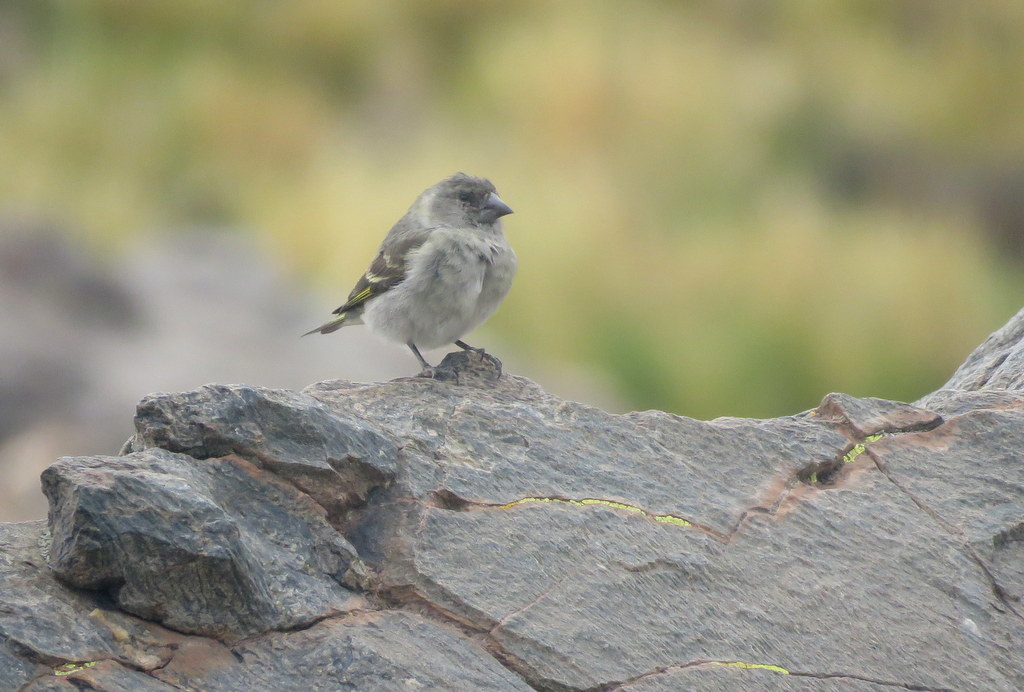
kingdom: Animalia
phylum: Chordata
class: Aves
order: Passeriformes
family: Fringillidae
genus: Spinus
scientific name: Spinus crassirostris
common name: Thick-billed siskin
